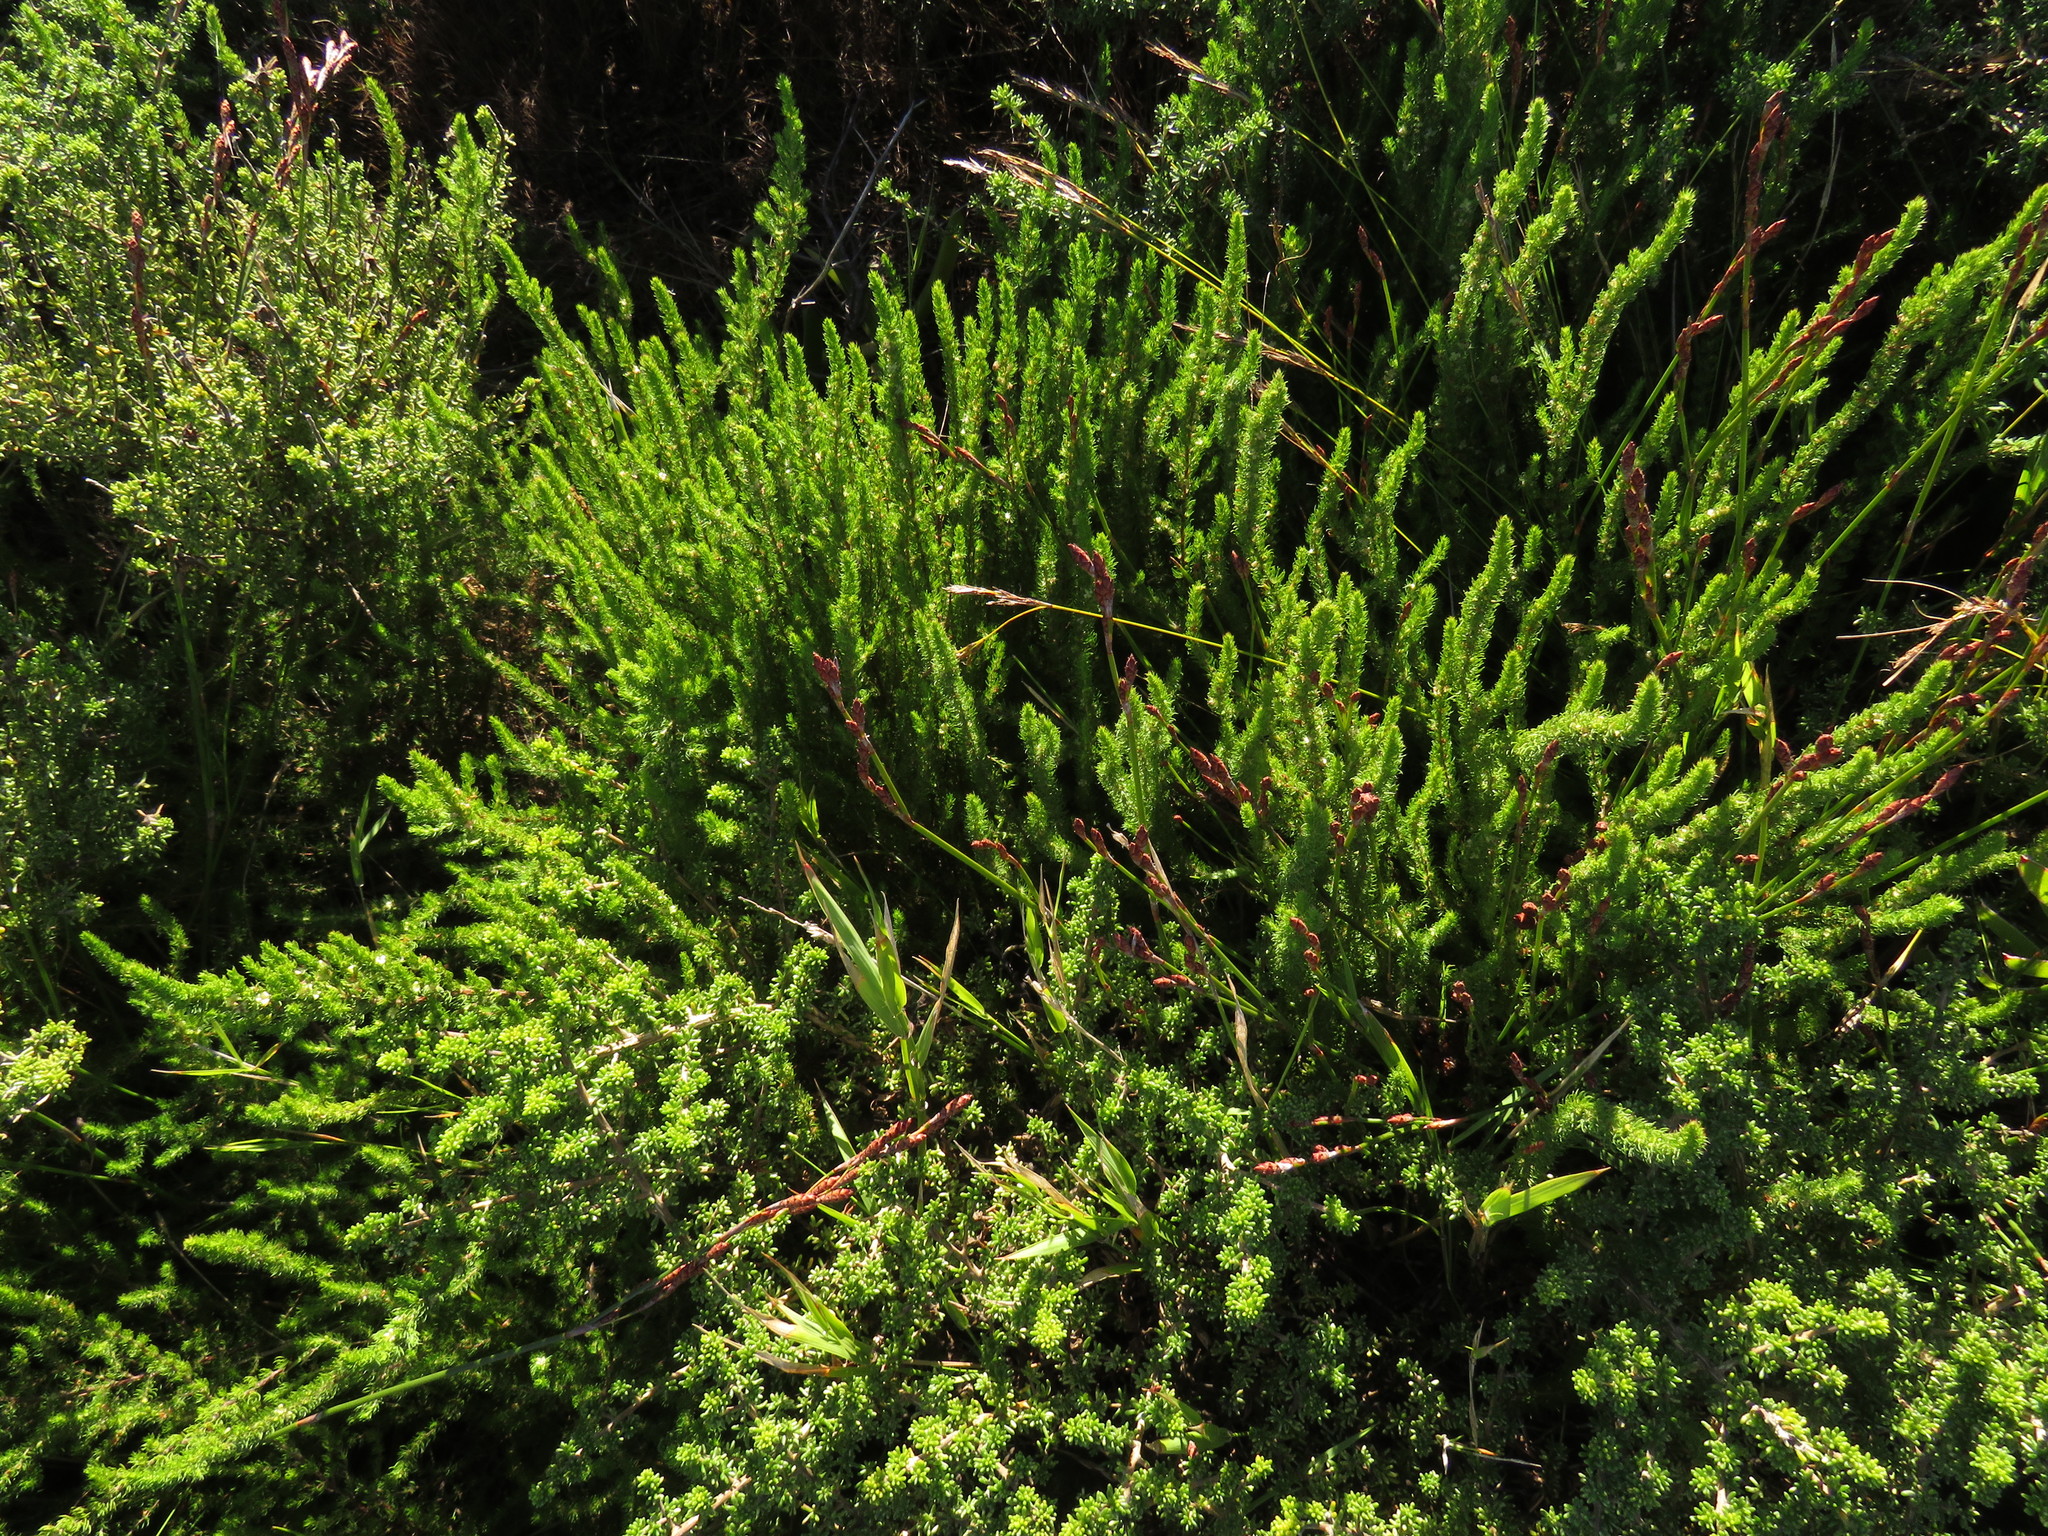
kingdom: Plantae
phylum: Tracheophyta
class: Magnoliopsida
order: Rosales
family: Rosaceae
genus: Cliffortia
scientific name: Cliffortia subsetacea
